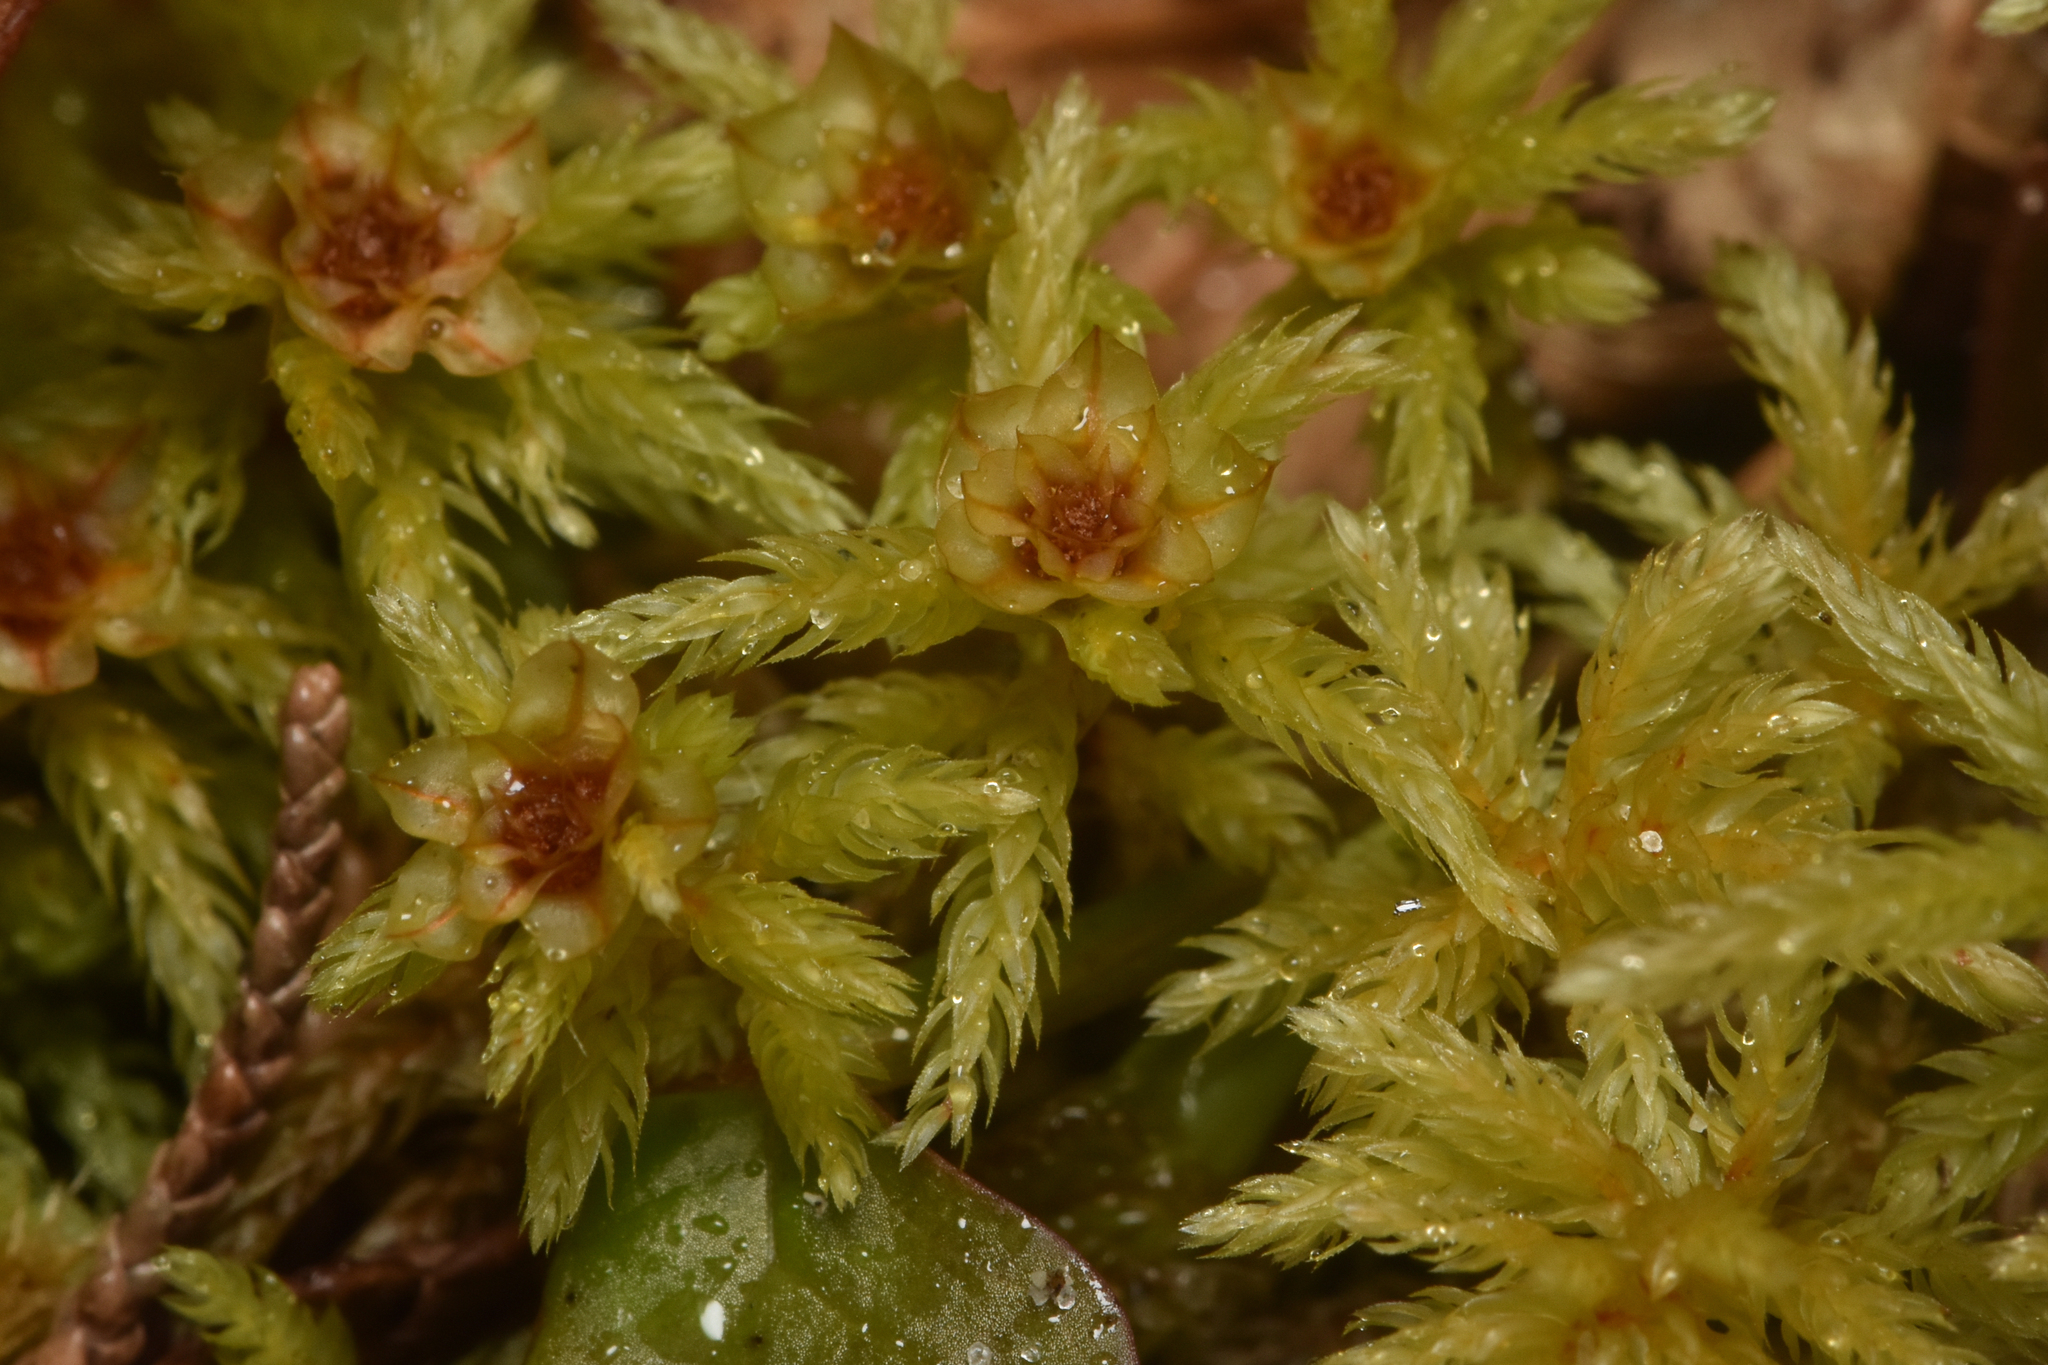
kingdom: Plantae
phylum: Bryophyta
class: Bryopsida
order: Bryales
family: Mniaceae
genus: Leucolepis
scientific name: Leucolepis acanthoneura
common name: Leucolepis umbrella moss
